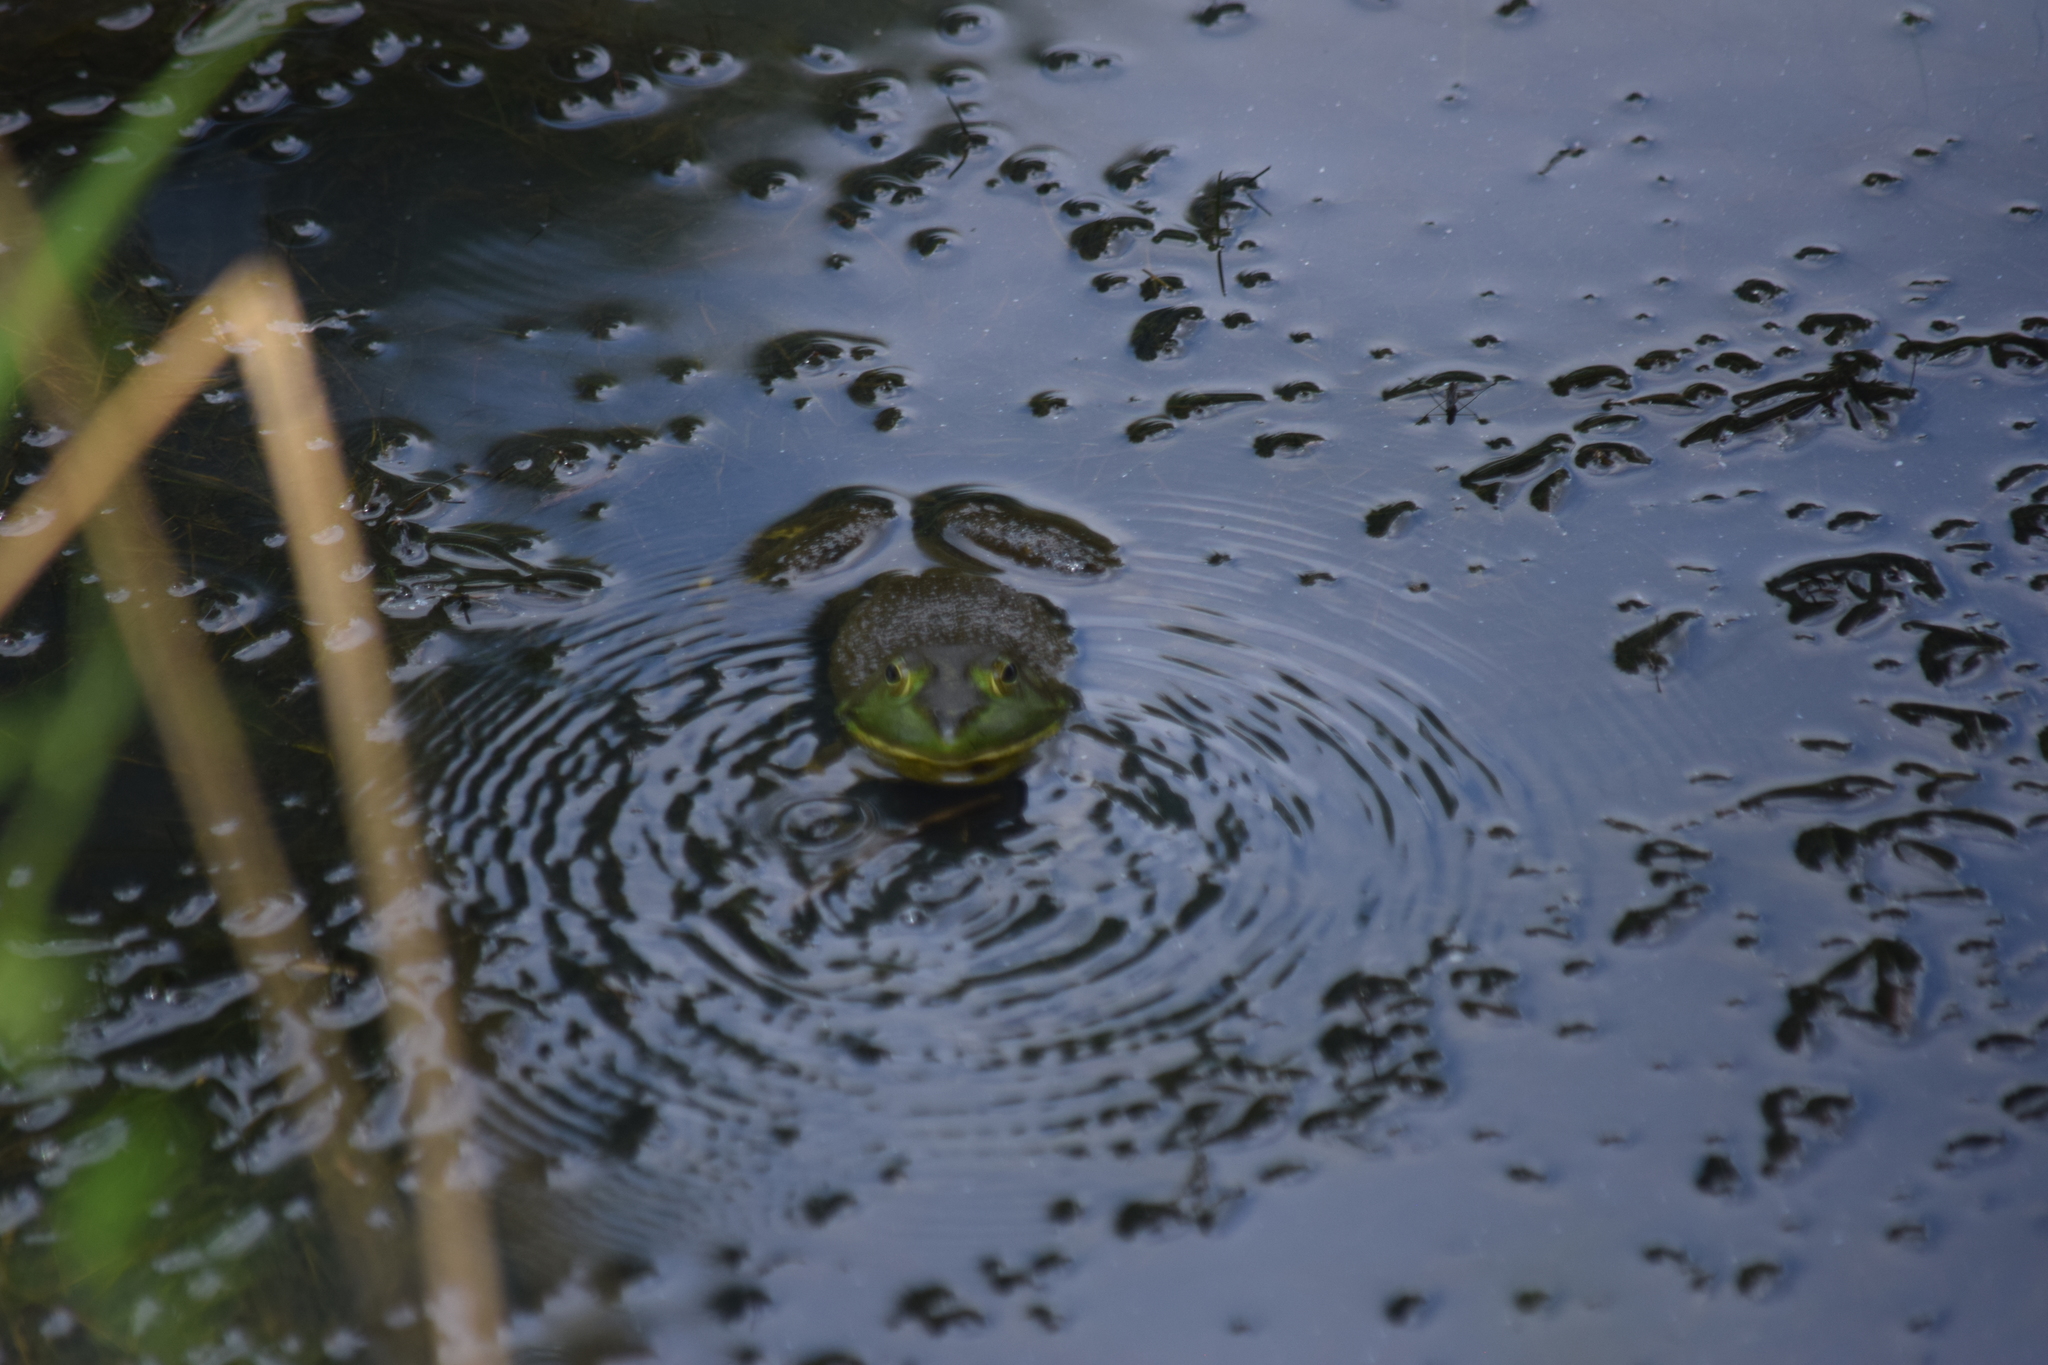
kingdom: Animalia
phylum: Chordata
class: Amphibia
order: Anura
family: Ranidae
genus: Lithobates
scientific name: Lithobates catesbeianus
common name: American bullfrog
